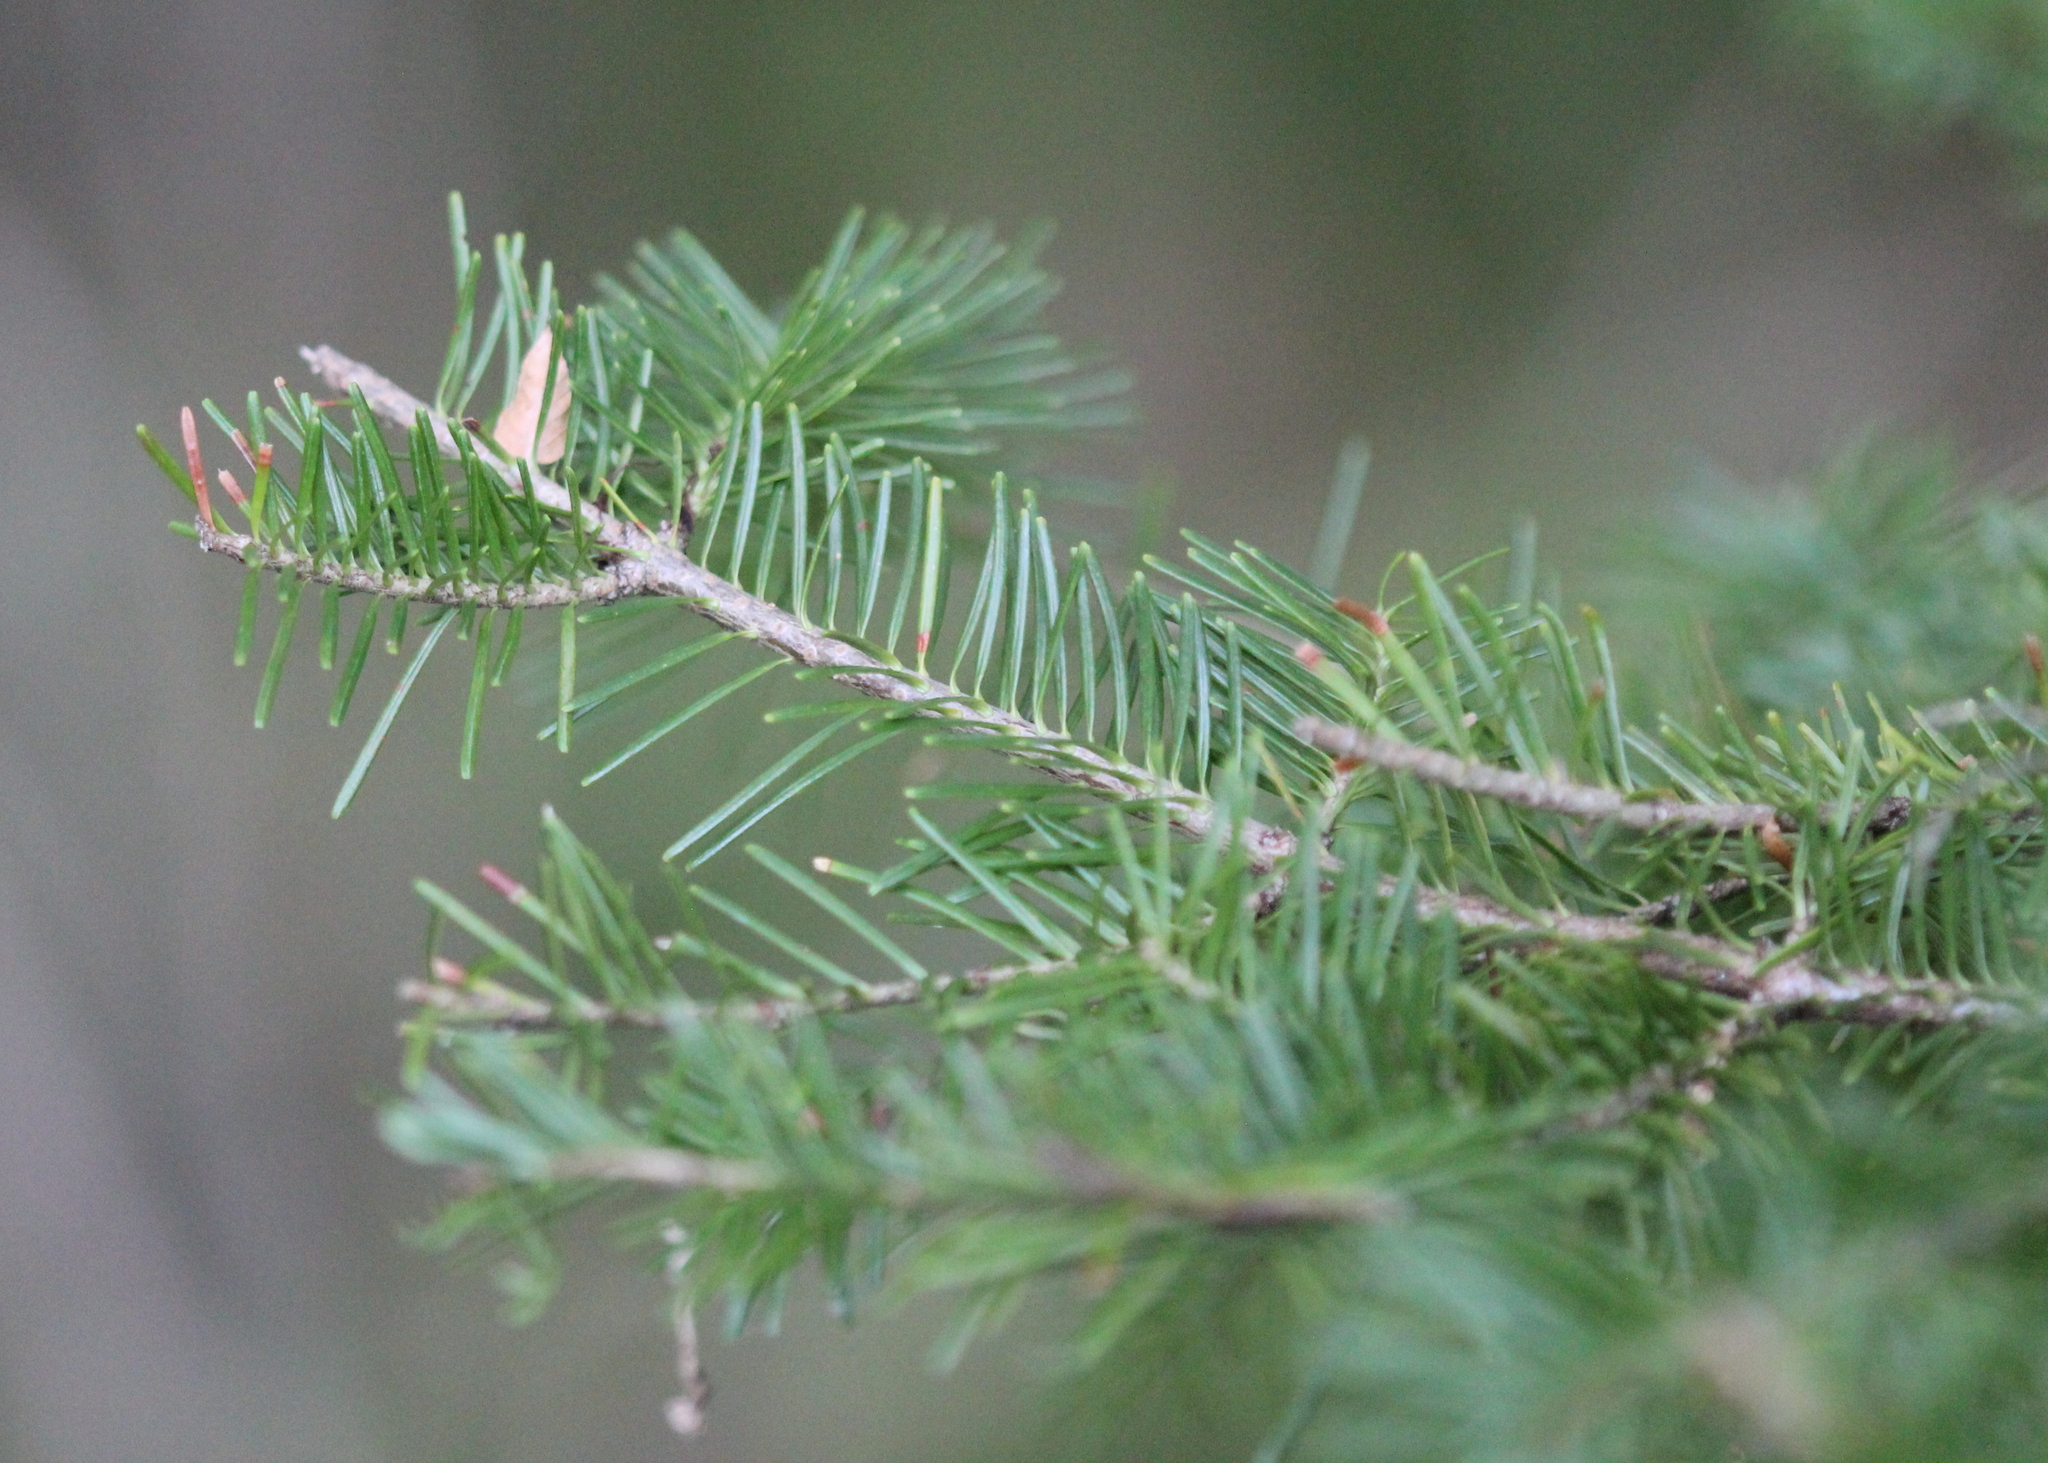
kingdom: Plantae
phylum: Tracheophyta
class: Pinopsida
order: Pinales
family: Pinaceae
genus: Abies
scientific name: Abies balsamea
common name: Balsam fir
